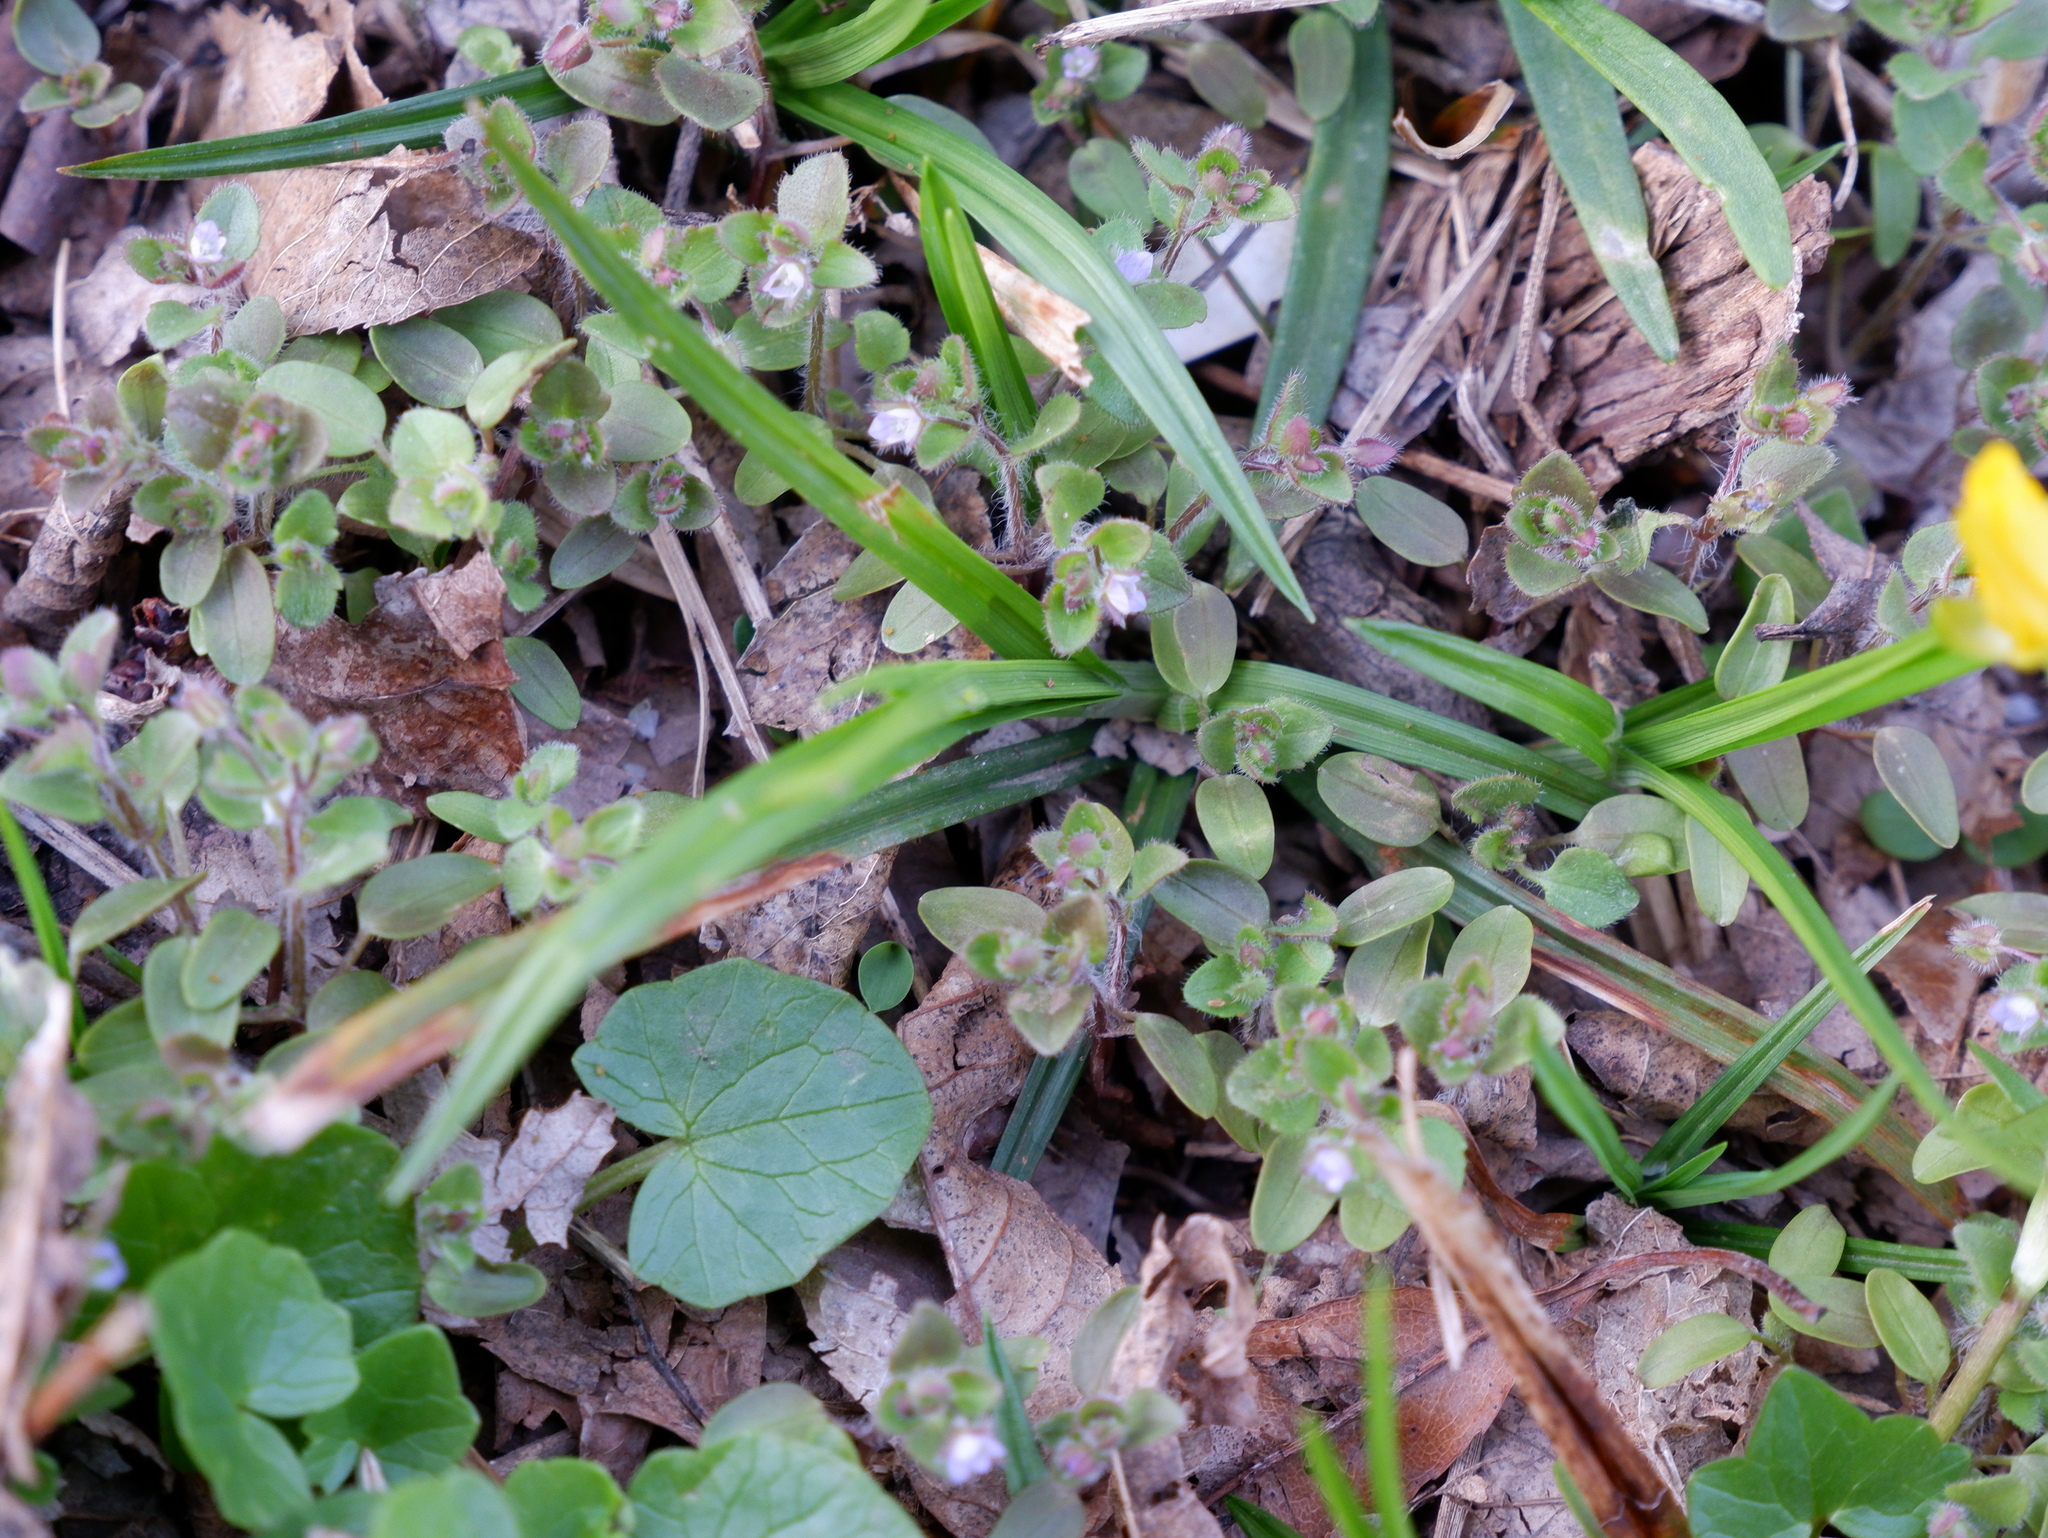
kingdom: Plantae
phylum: Tracheophyta
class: Magnoliopsida
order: Lamiales
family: Plantaginaceae
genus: Veronica
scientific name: Veronica sublobata
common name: False ivy-leaved speedwell
